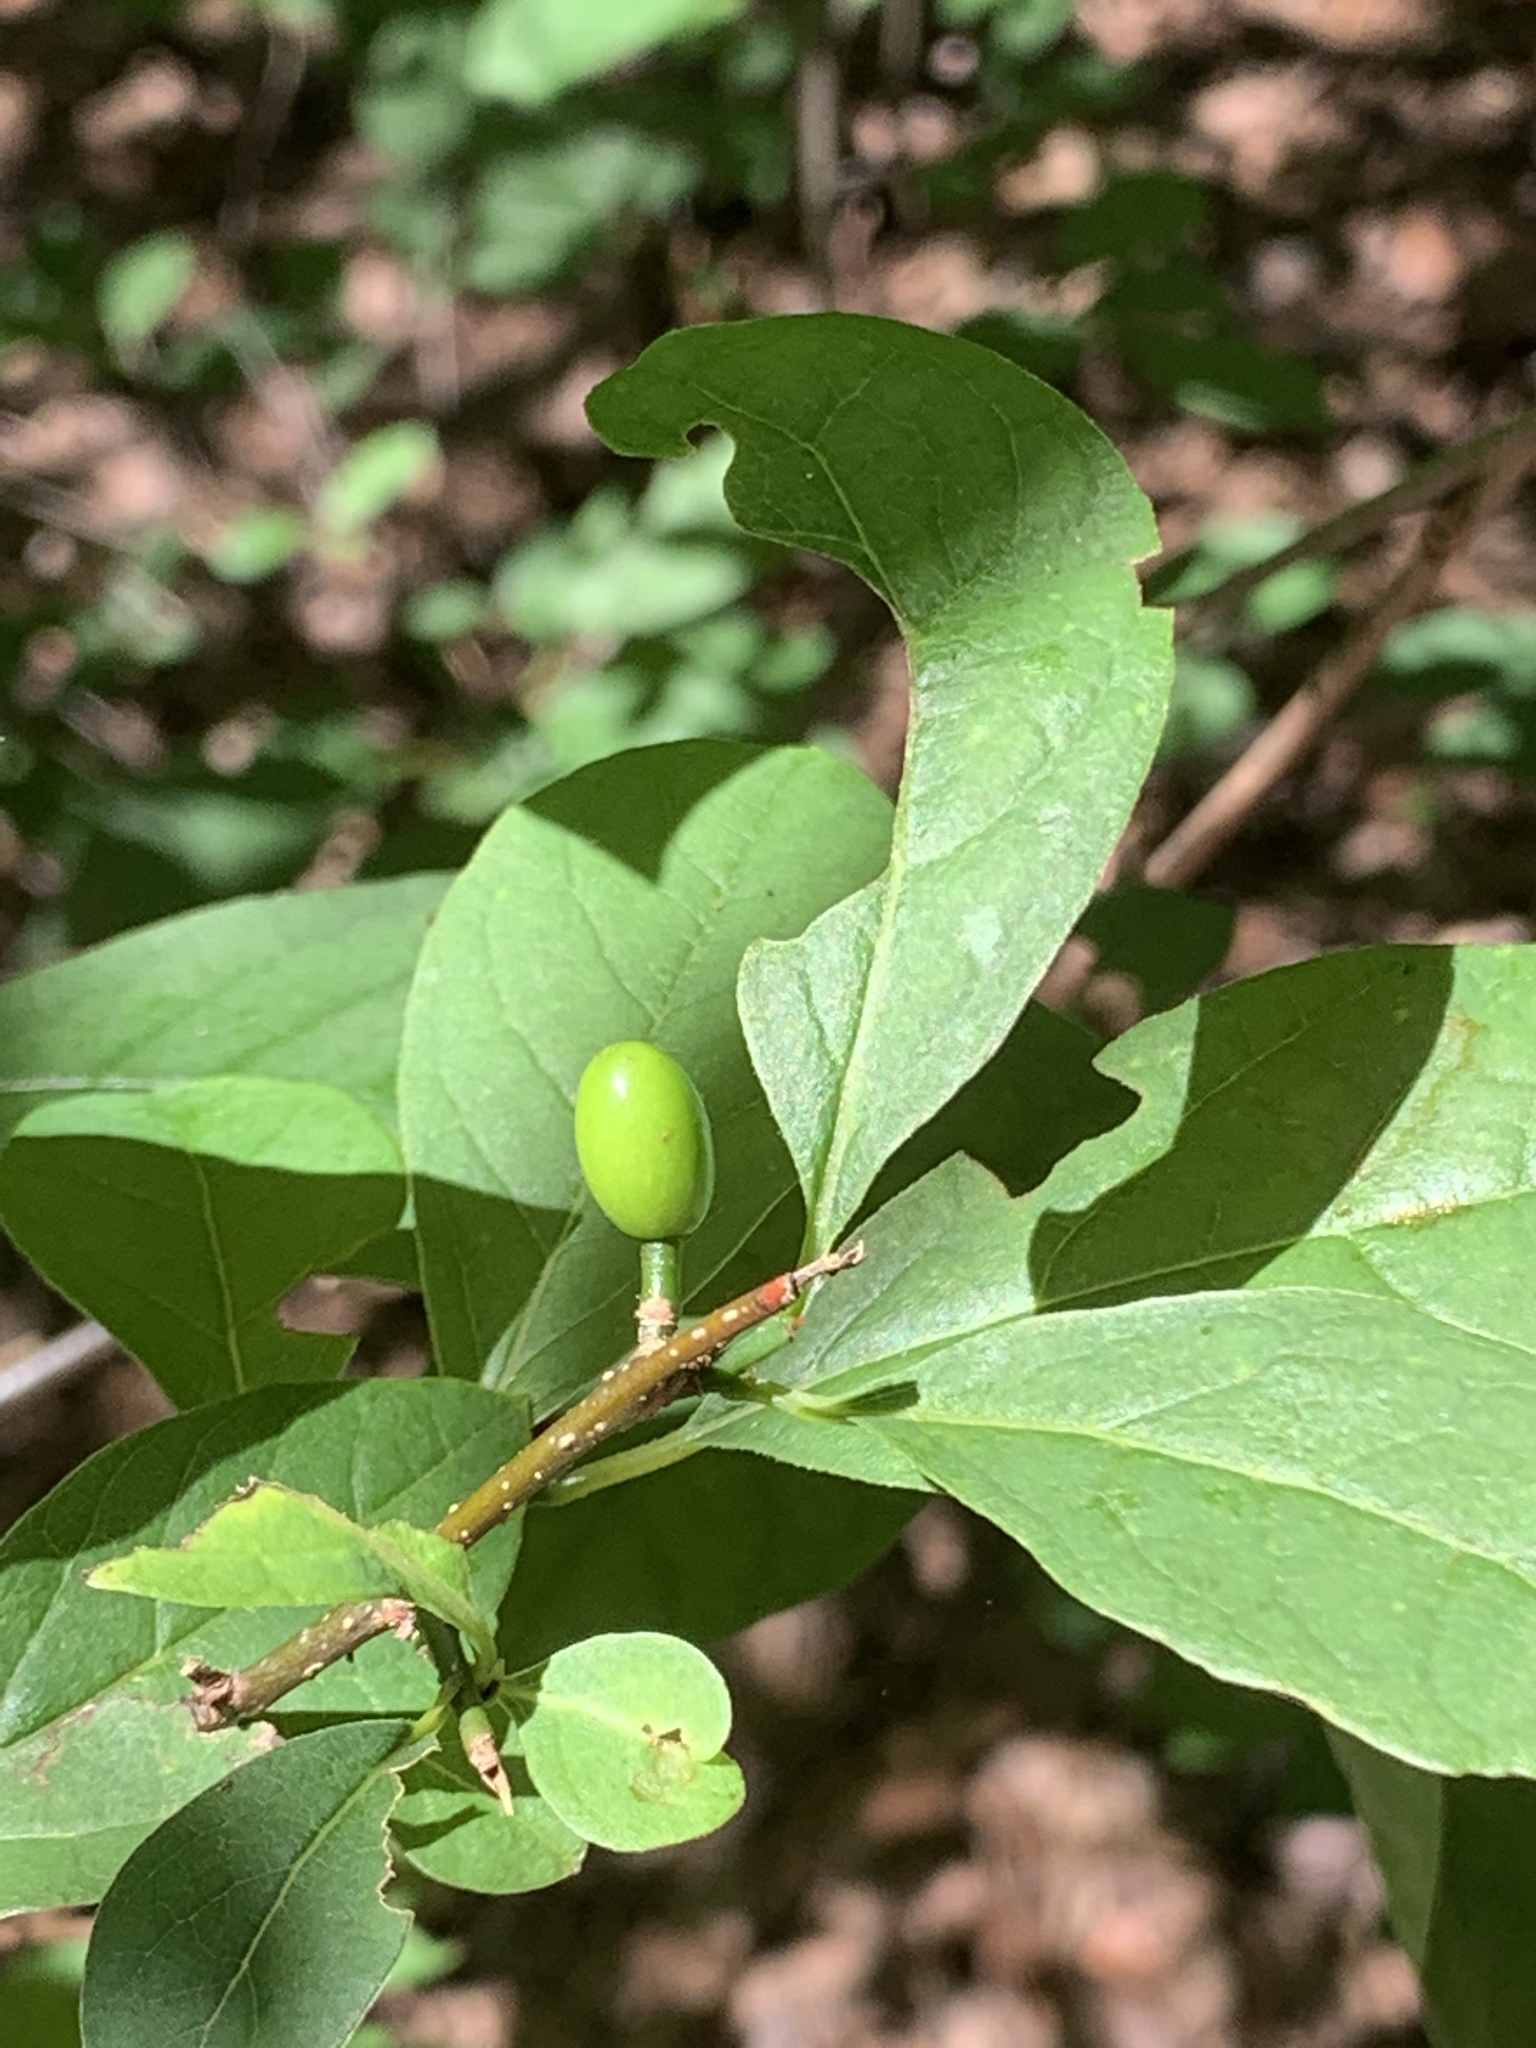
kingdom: Plantae
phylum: Tracheophyta
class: Magnoliopsida
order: Laurales
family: Lauraceae
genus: Lindera
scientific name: Lindera benzoin
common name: Spicebush
